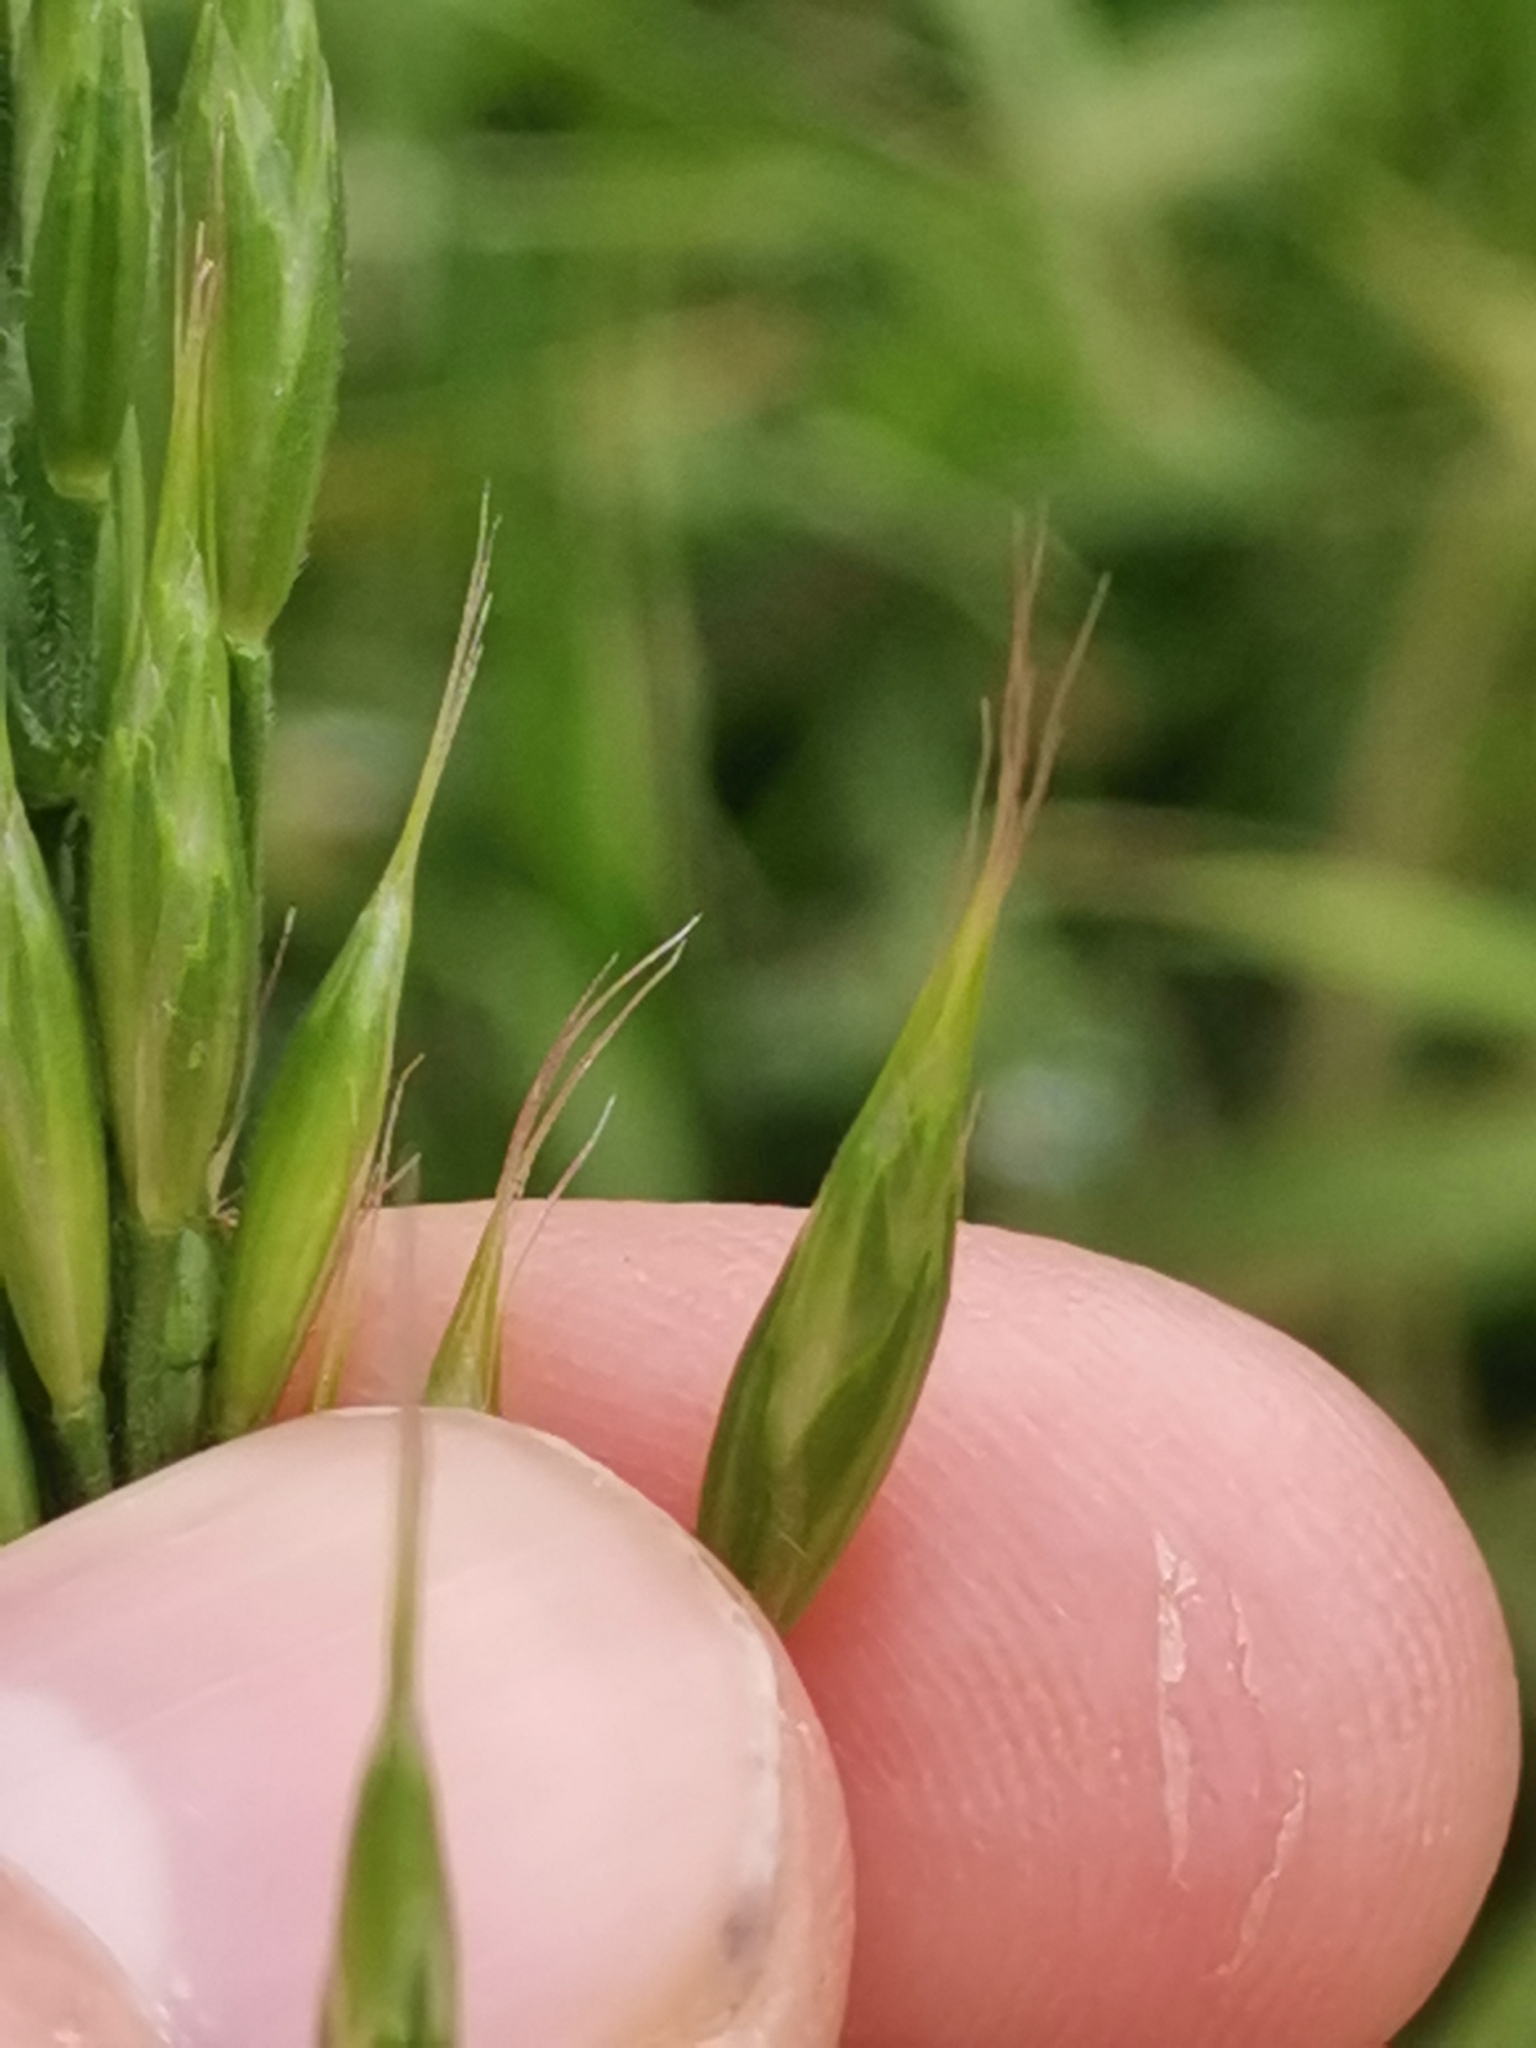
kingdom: Plantae
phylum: Tracheophyta
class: Liliopsida
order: Poales
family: Poaceae
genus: Bromus
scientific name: Bromus hordeaceus
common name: Soft brome
